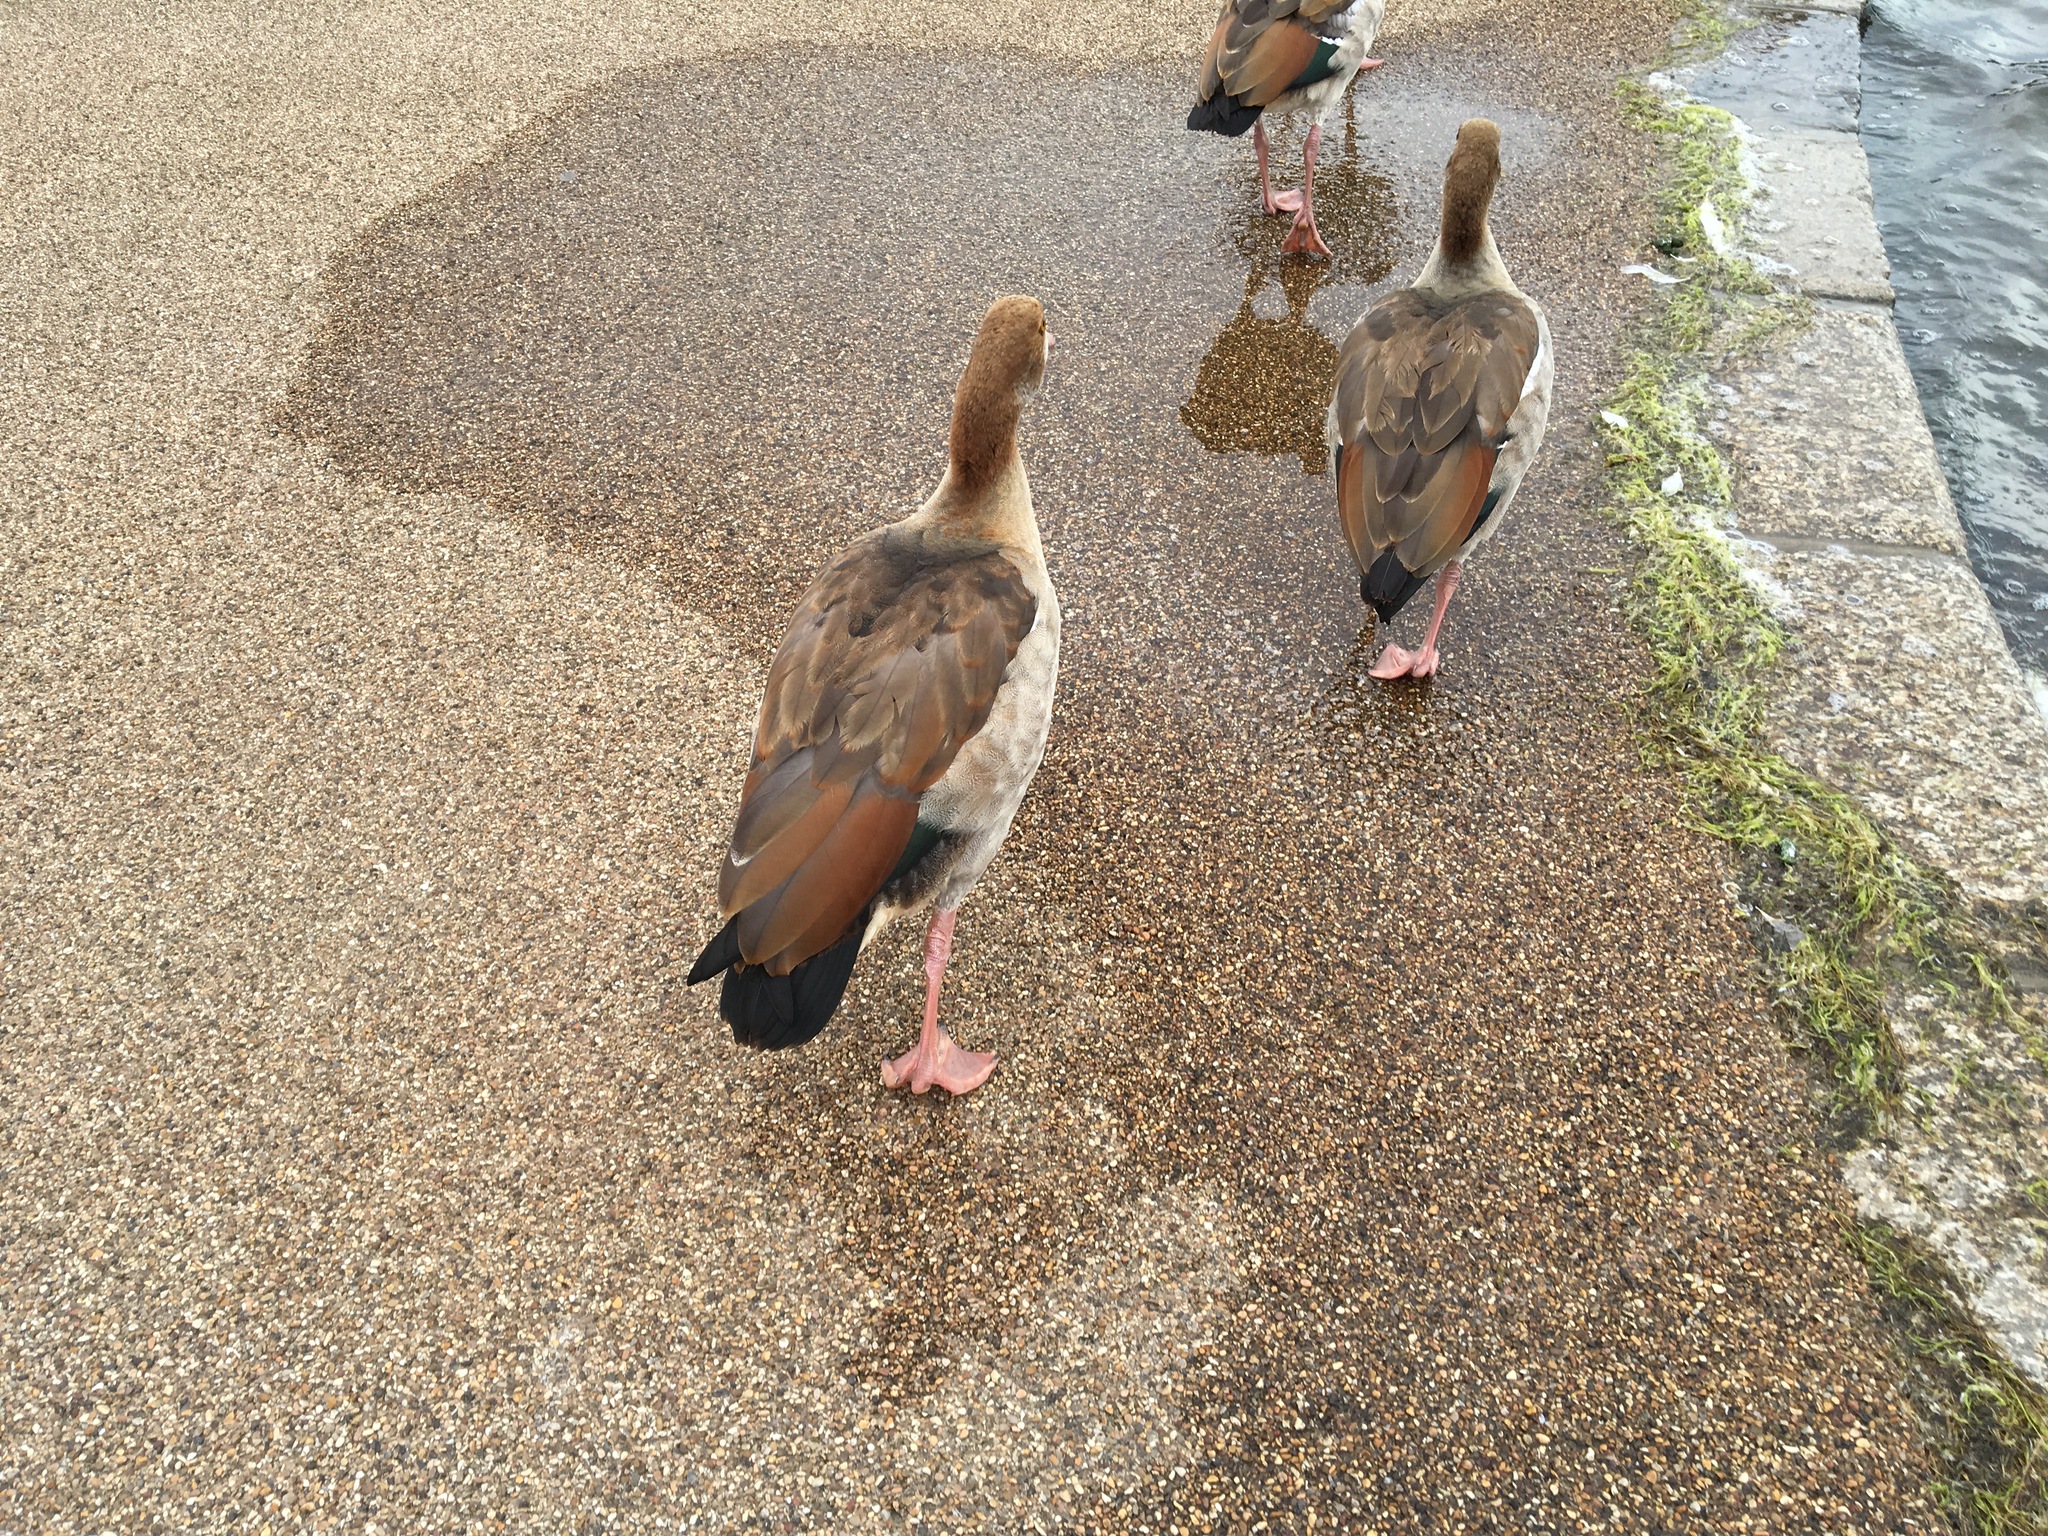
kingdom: Animalia
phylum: Chordata
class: Aves
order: Anseriformes
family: Anatidae
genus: Alopochen
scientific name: Alopochen aegyptiaca
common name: Egyptian goose
